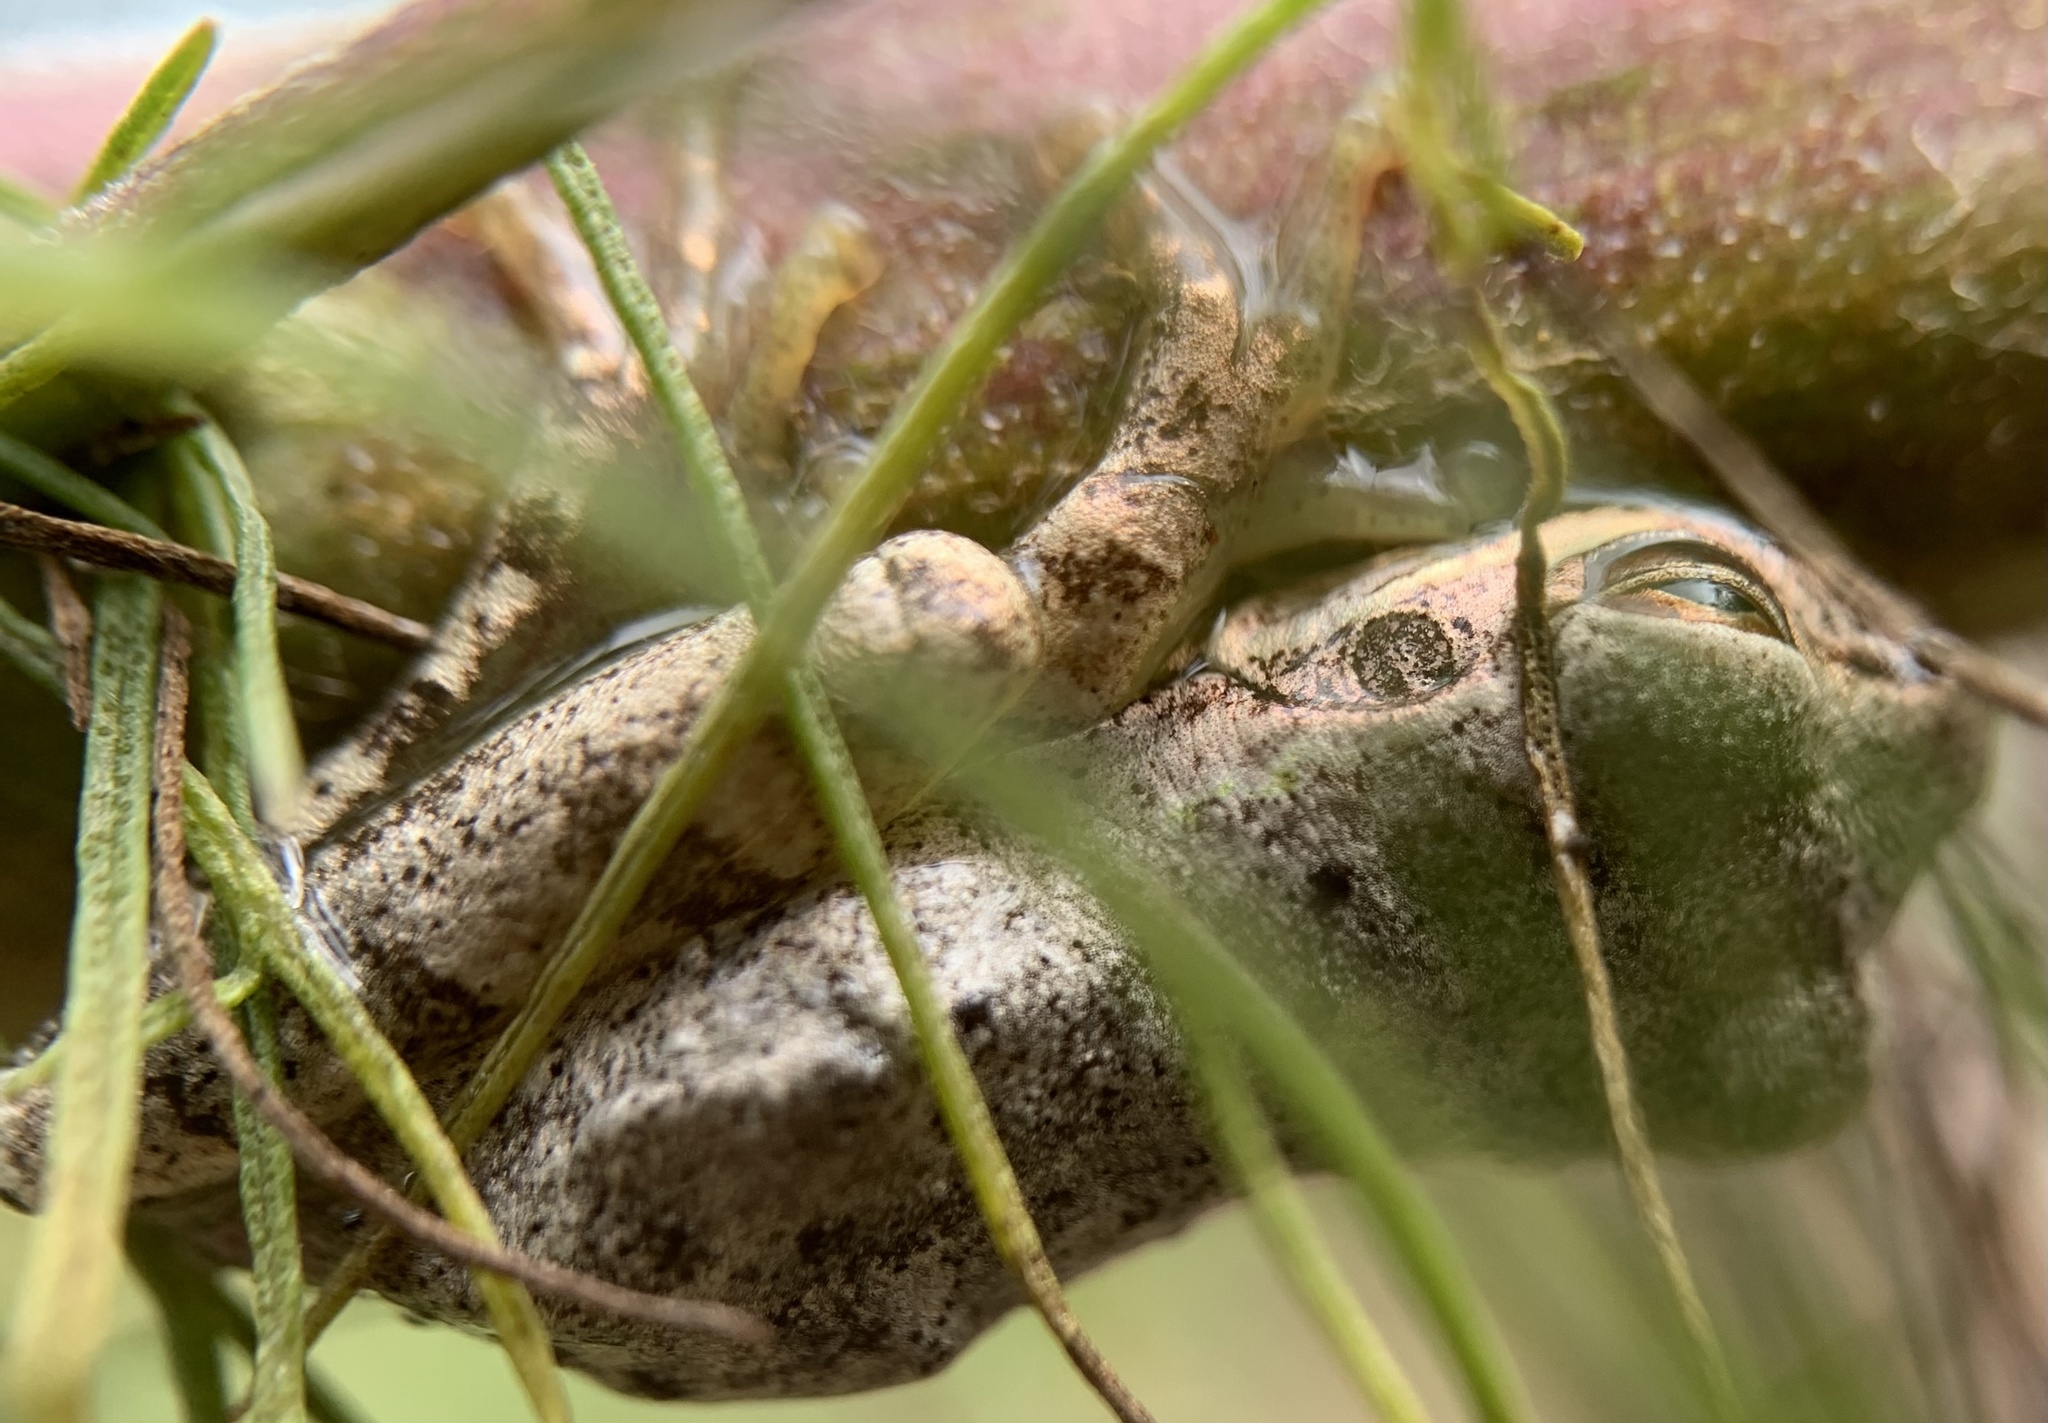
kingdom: Animalia
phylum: Chordata
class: Amphibia
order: Anura
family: Hylidae
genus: Osteopilus
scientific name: Osteopilus septentrionalis
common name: Cuban treefrog
